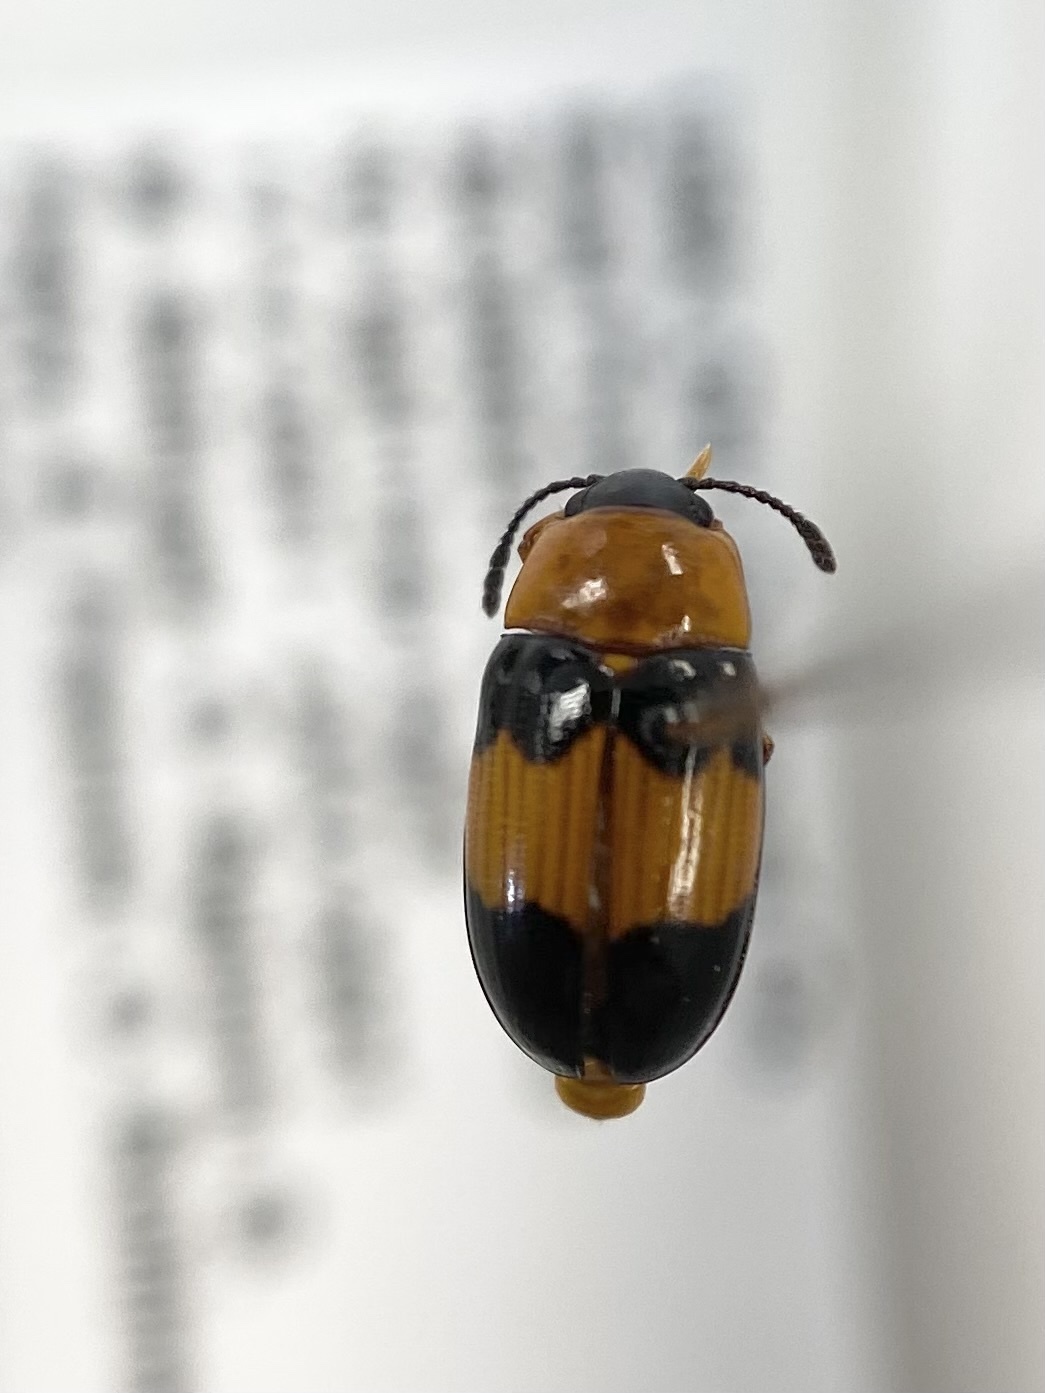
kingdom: Animalia
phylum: Arthropoda
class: Insecta
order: Coleoptera
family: Erotylidae
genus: Triplax
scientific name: Triplax festiva
